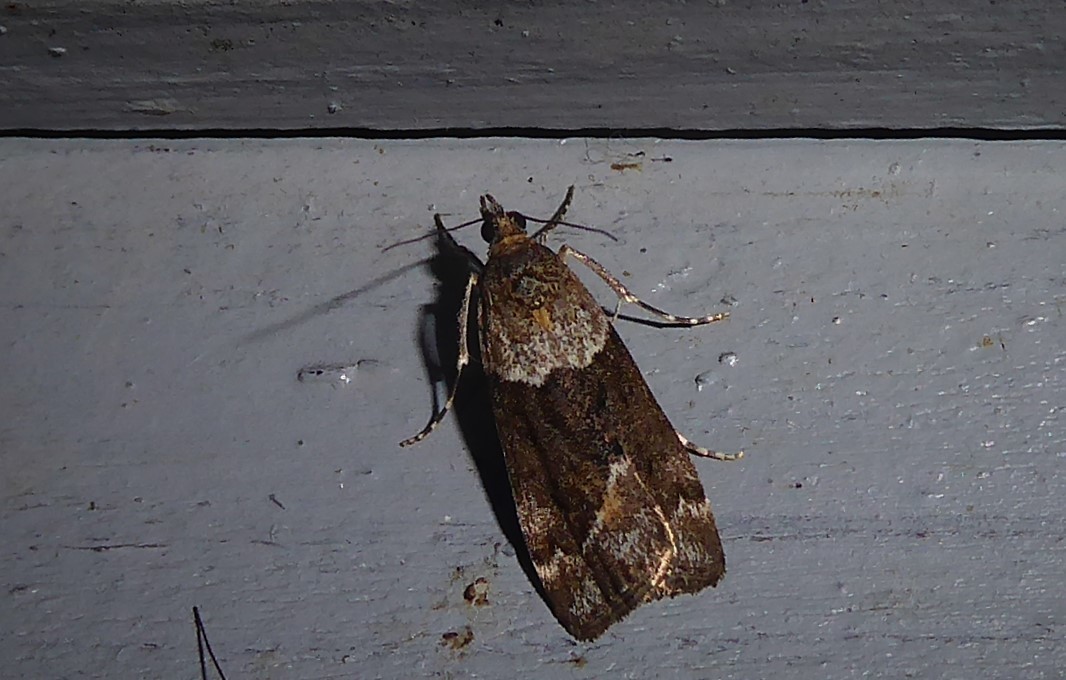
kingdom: Animalia
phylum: Arthropoda
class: Insecta
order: Lepidoptera
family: Crambidae
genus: Eudonia
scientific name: Eudonia submarginalis
